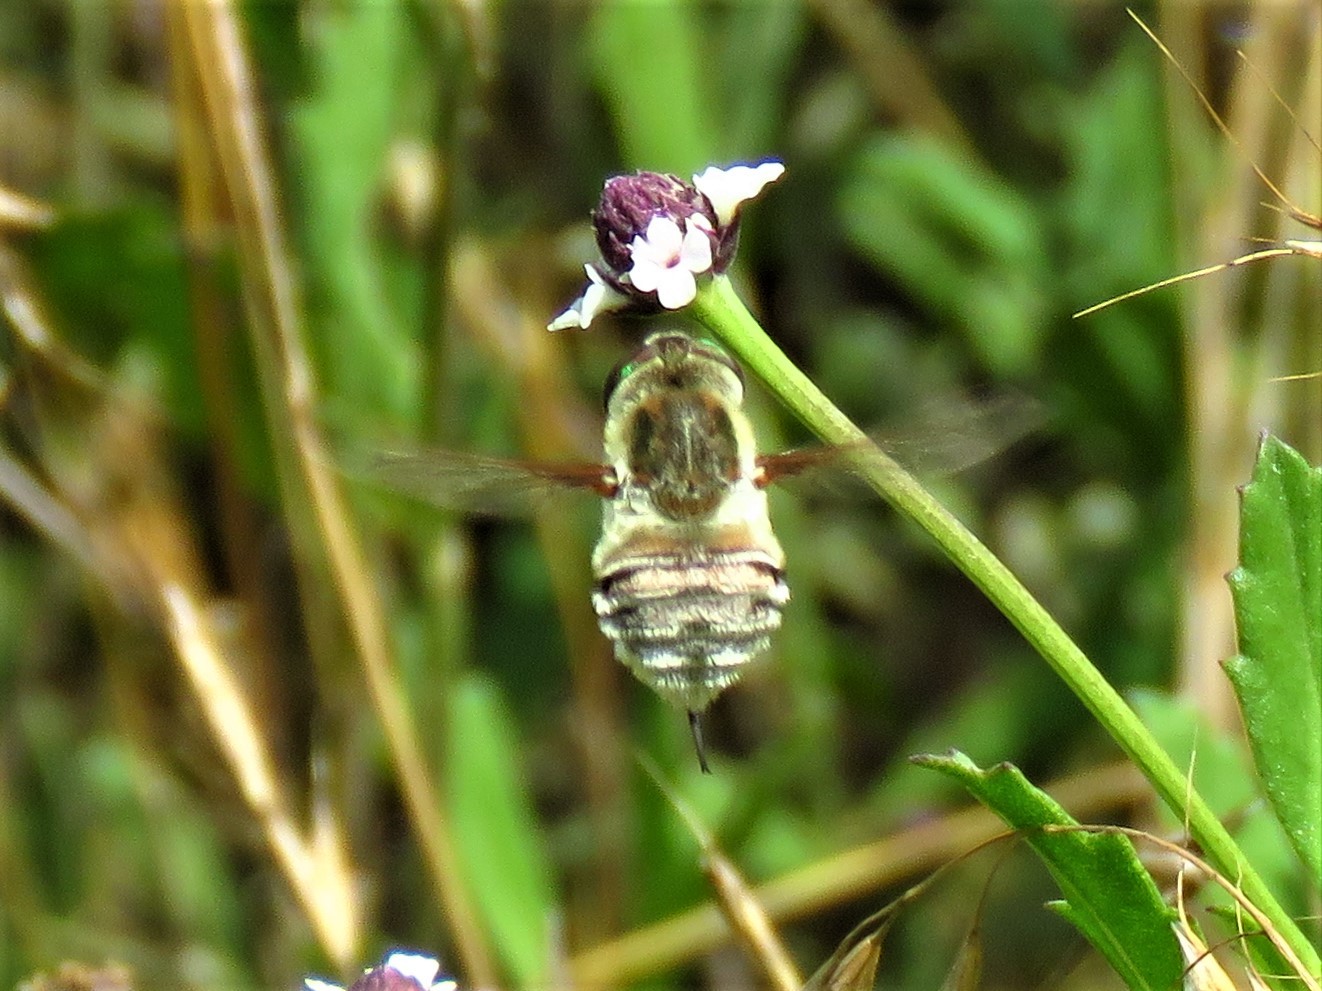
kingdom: Animalia
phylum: Arthropoda
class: Insecta
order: Diptera
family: Nemestrinidae
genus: Neorhynchocephalus
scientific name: Neorhynchocephalus volaticus
